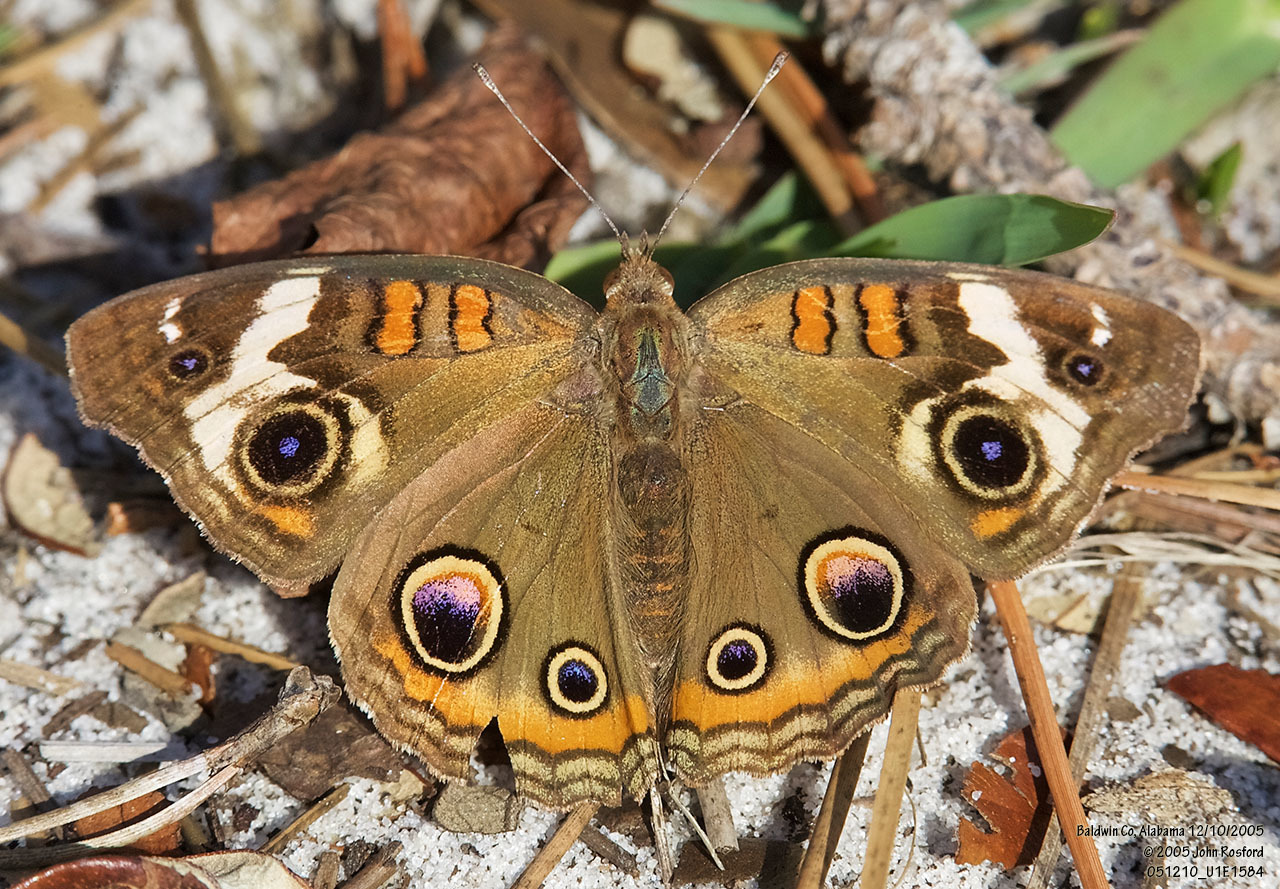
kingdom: Animalia
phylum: Arthropoda
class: Insecta
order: Lepidoptera
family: Nymphalidae
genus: Junonia
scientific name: Junonia coenia
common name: Common buckeye
